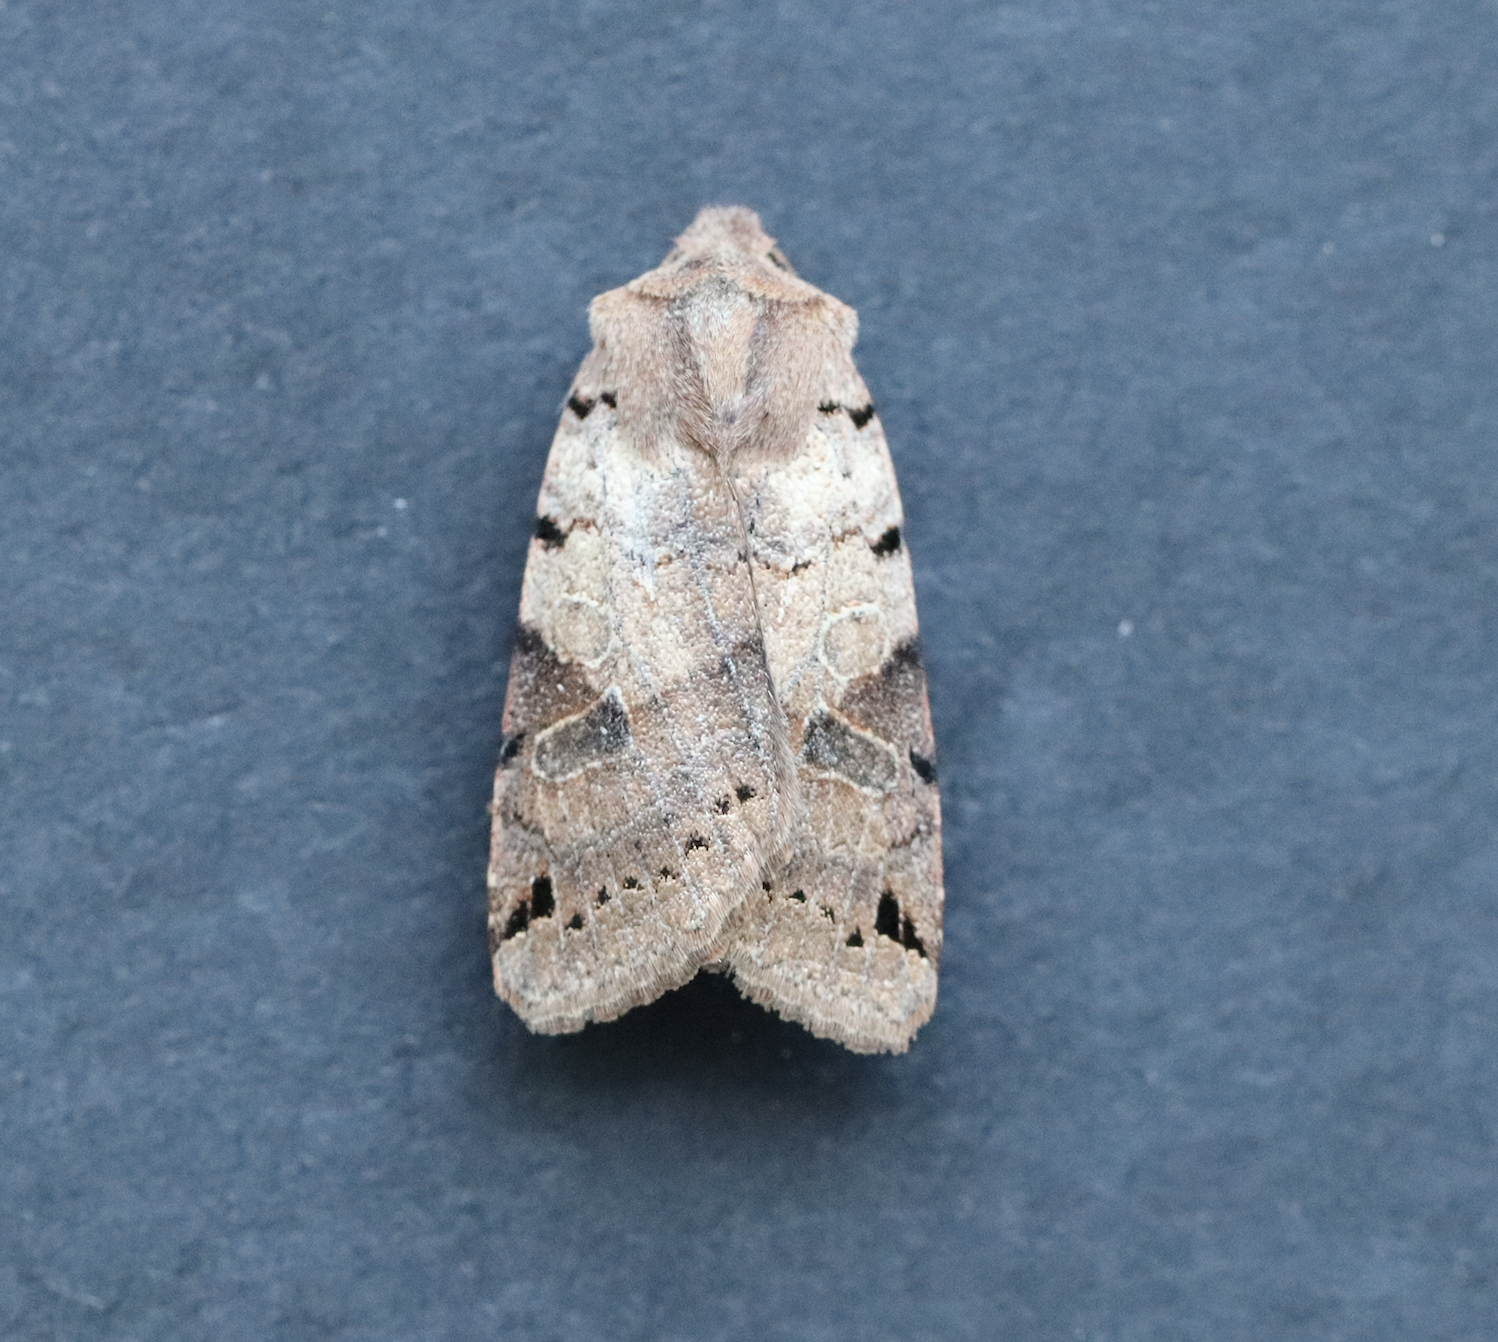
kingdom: Animalia
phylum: Arthropoda
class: Insecta
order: Lepidoptera
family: Noctuidae
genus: Agrochola
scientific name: Agrochola litura
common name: Brown-spot pinion
